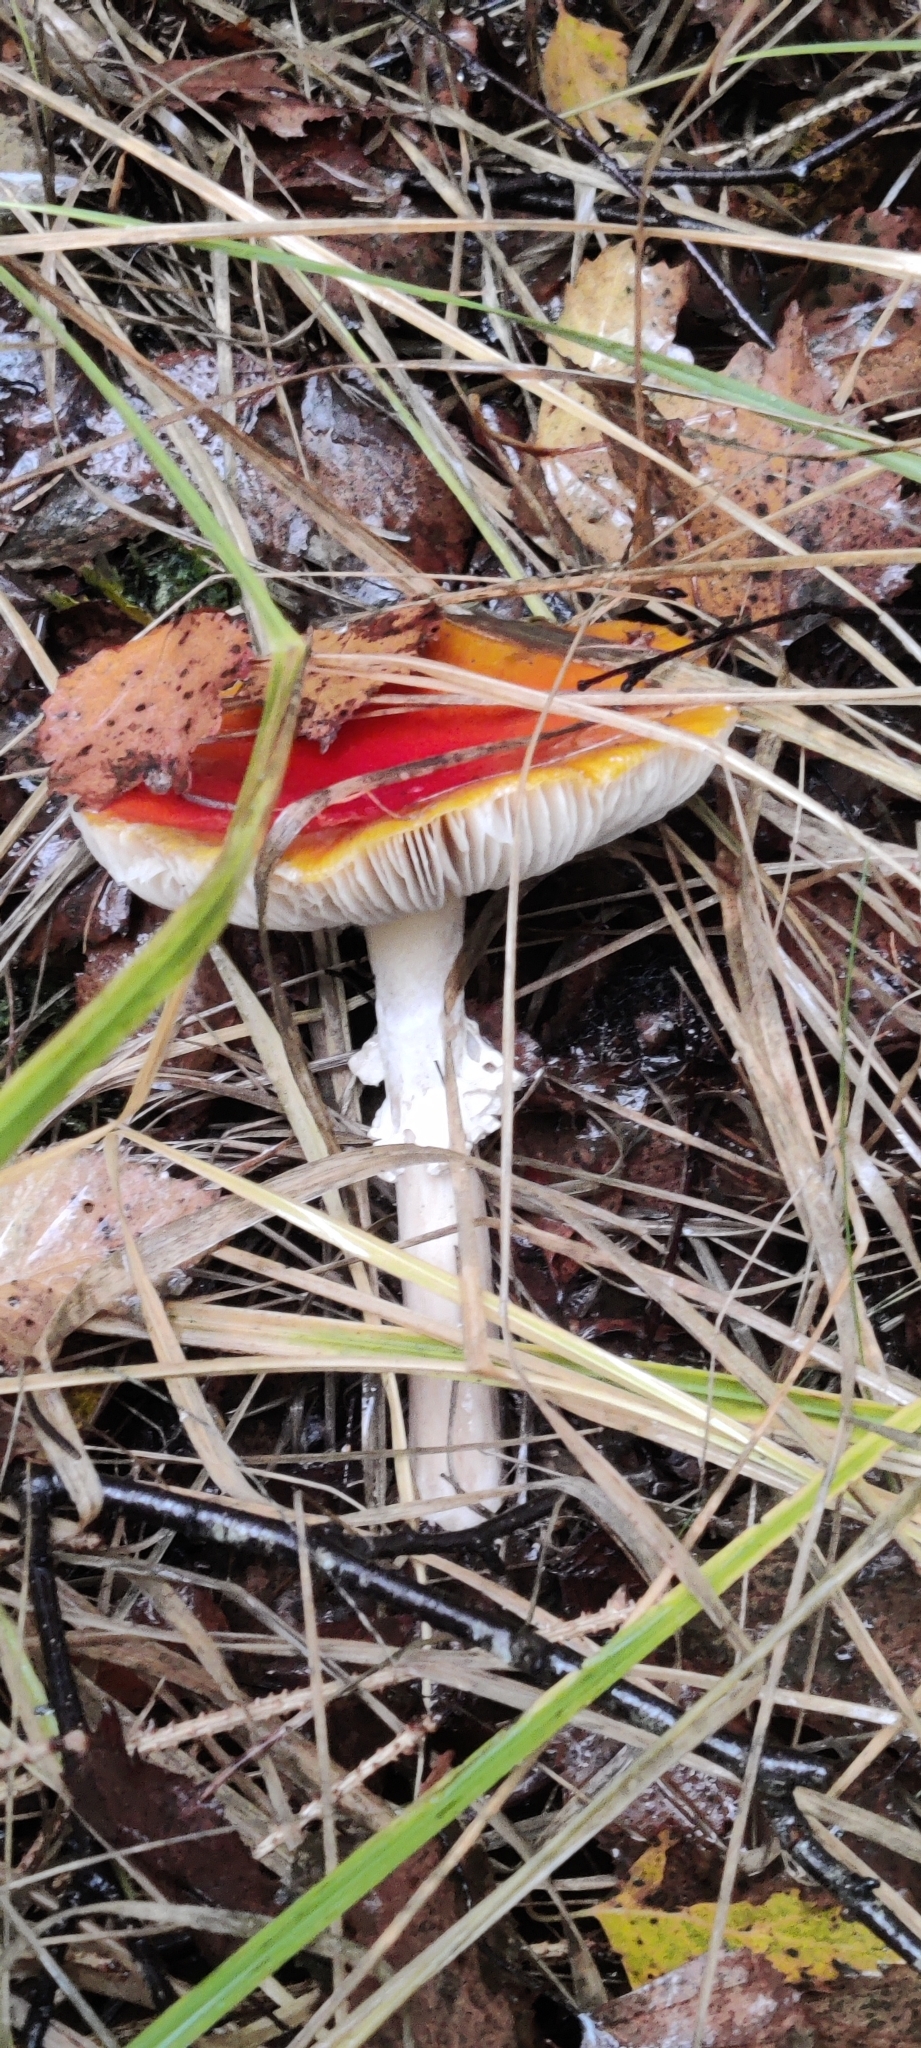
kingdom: Fungi
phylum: Basidiomycota
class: Agaricomycetes
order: Agaricales
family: Amanitaceae
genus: Amanita
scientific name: Amanita muscaria
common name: Fly agaric
